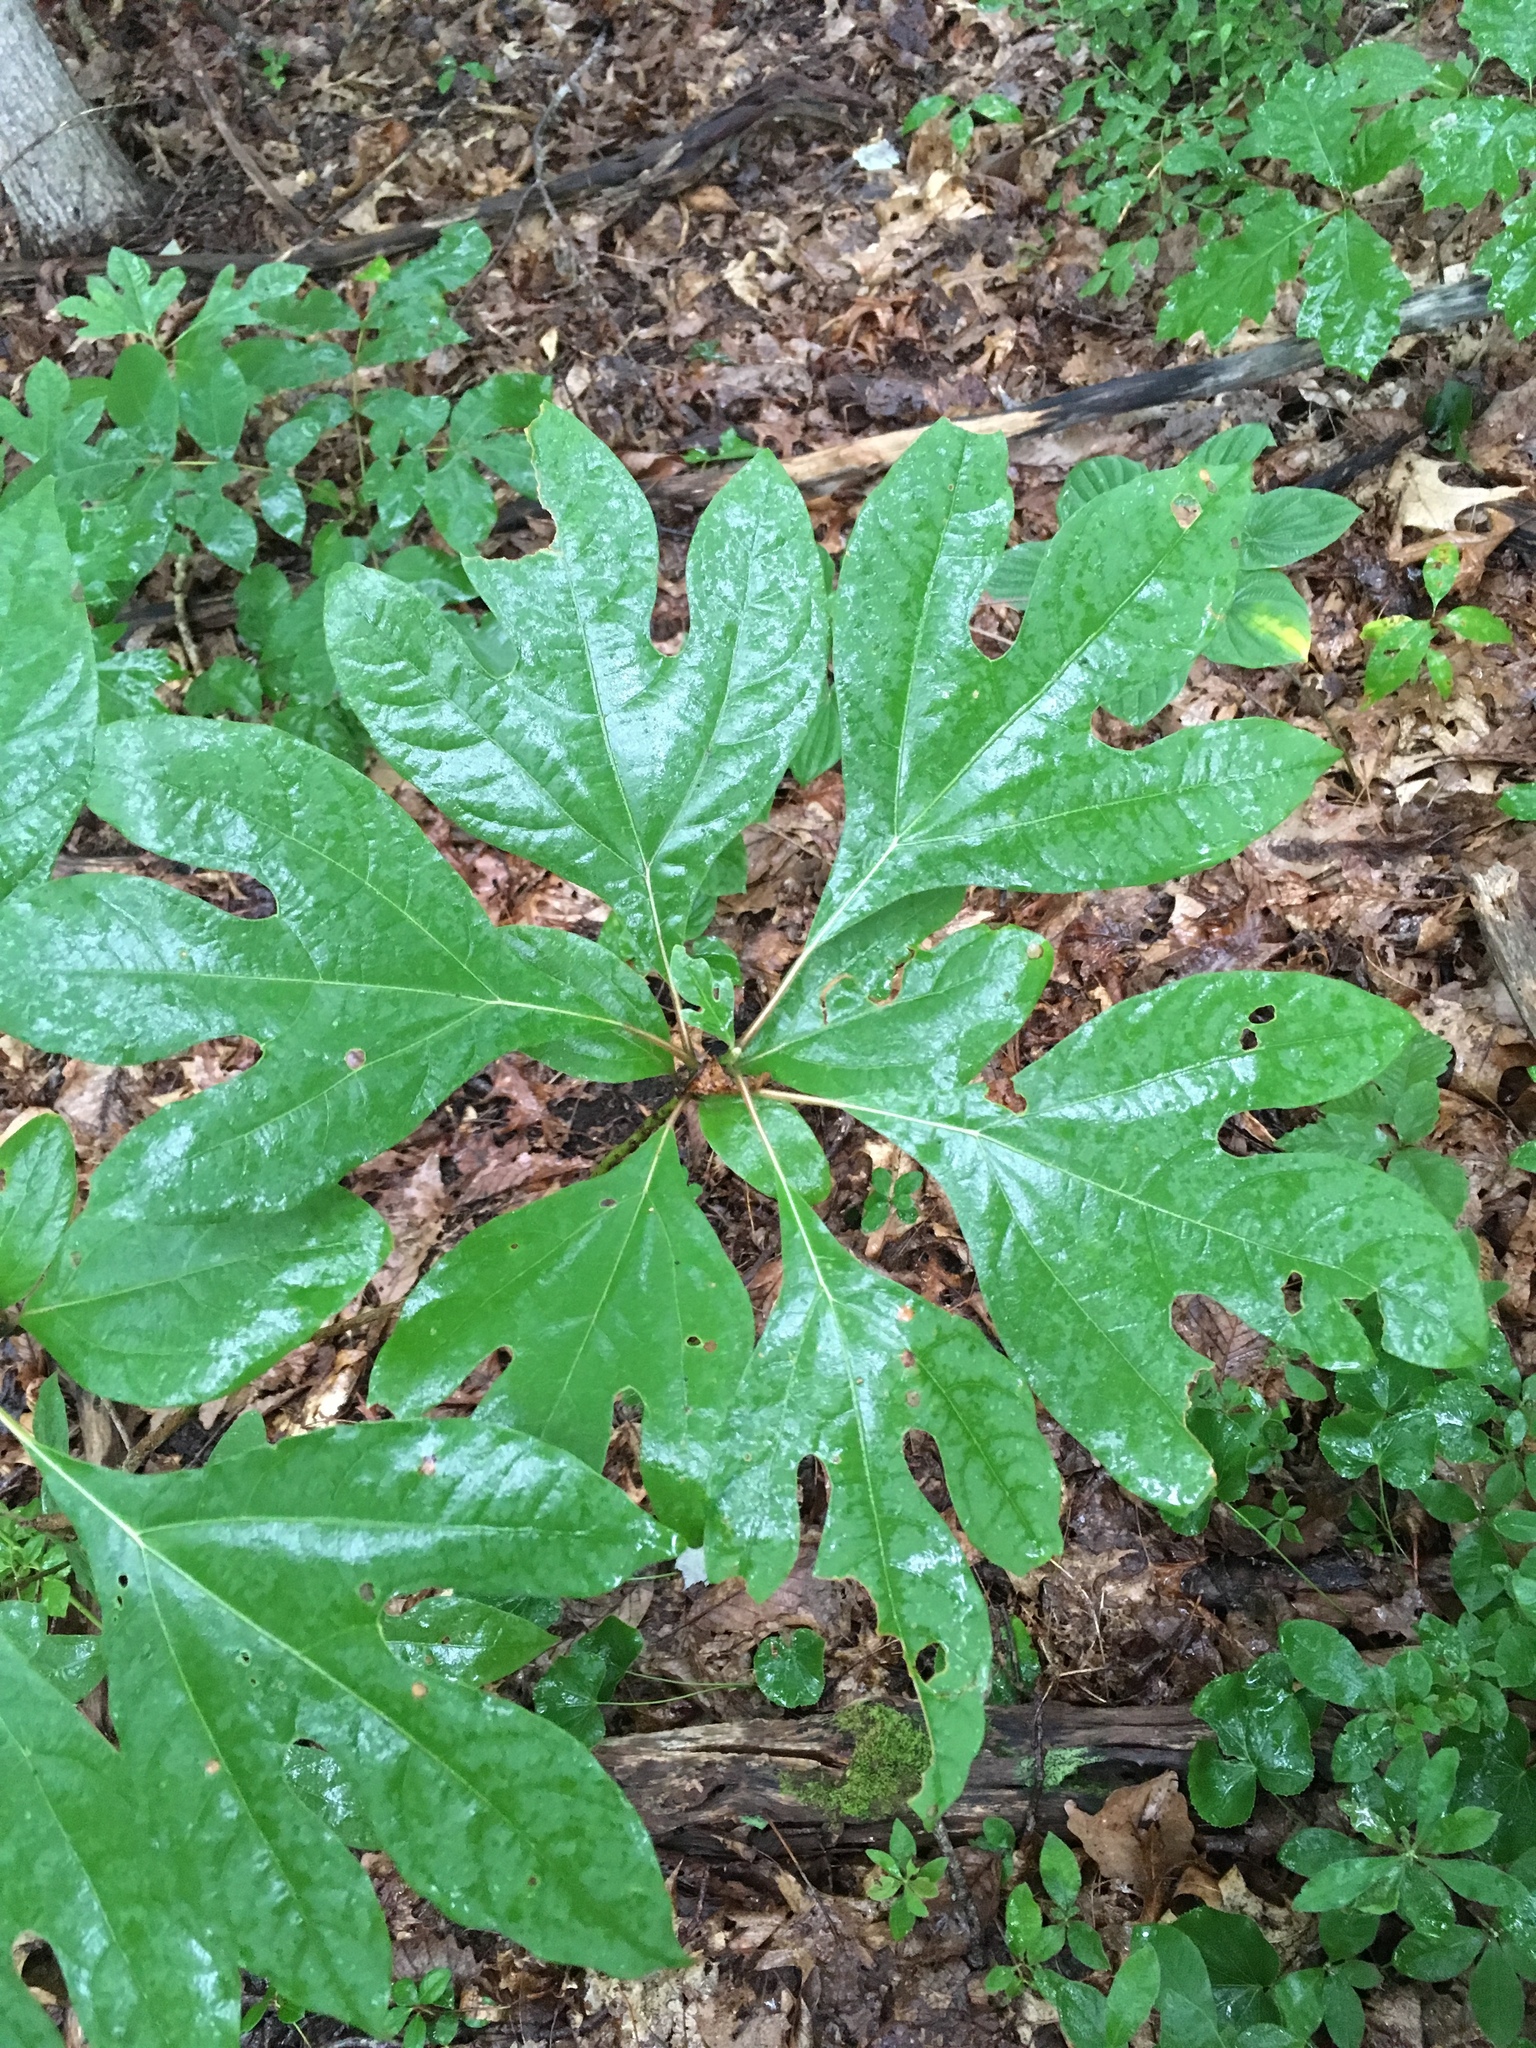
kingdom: Plantae
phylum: Tracheophyta
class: Magnoliopsida
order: Laurales
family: Lauraceae
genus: Sassafras
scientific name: Sassafras albidum
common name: Sassafras
